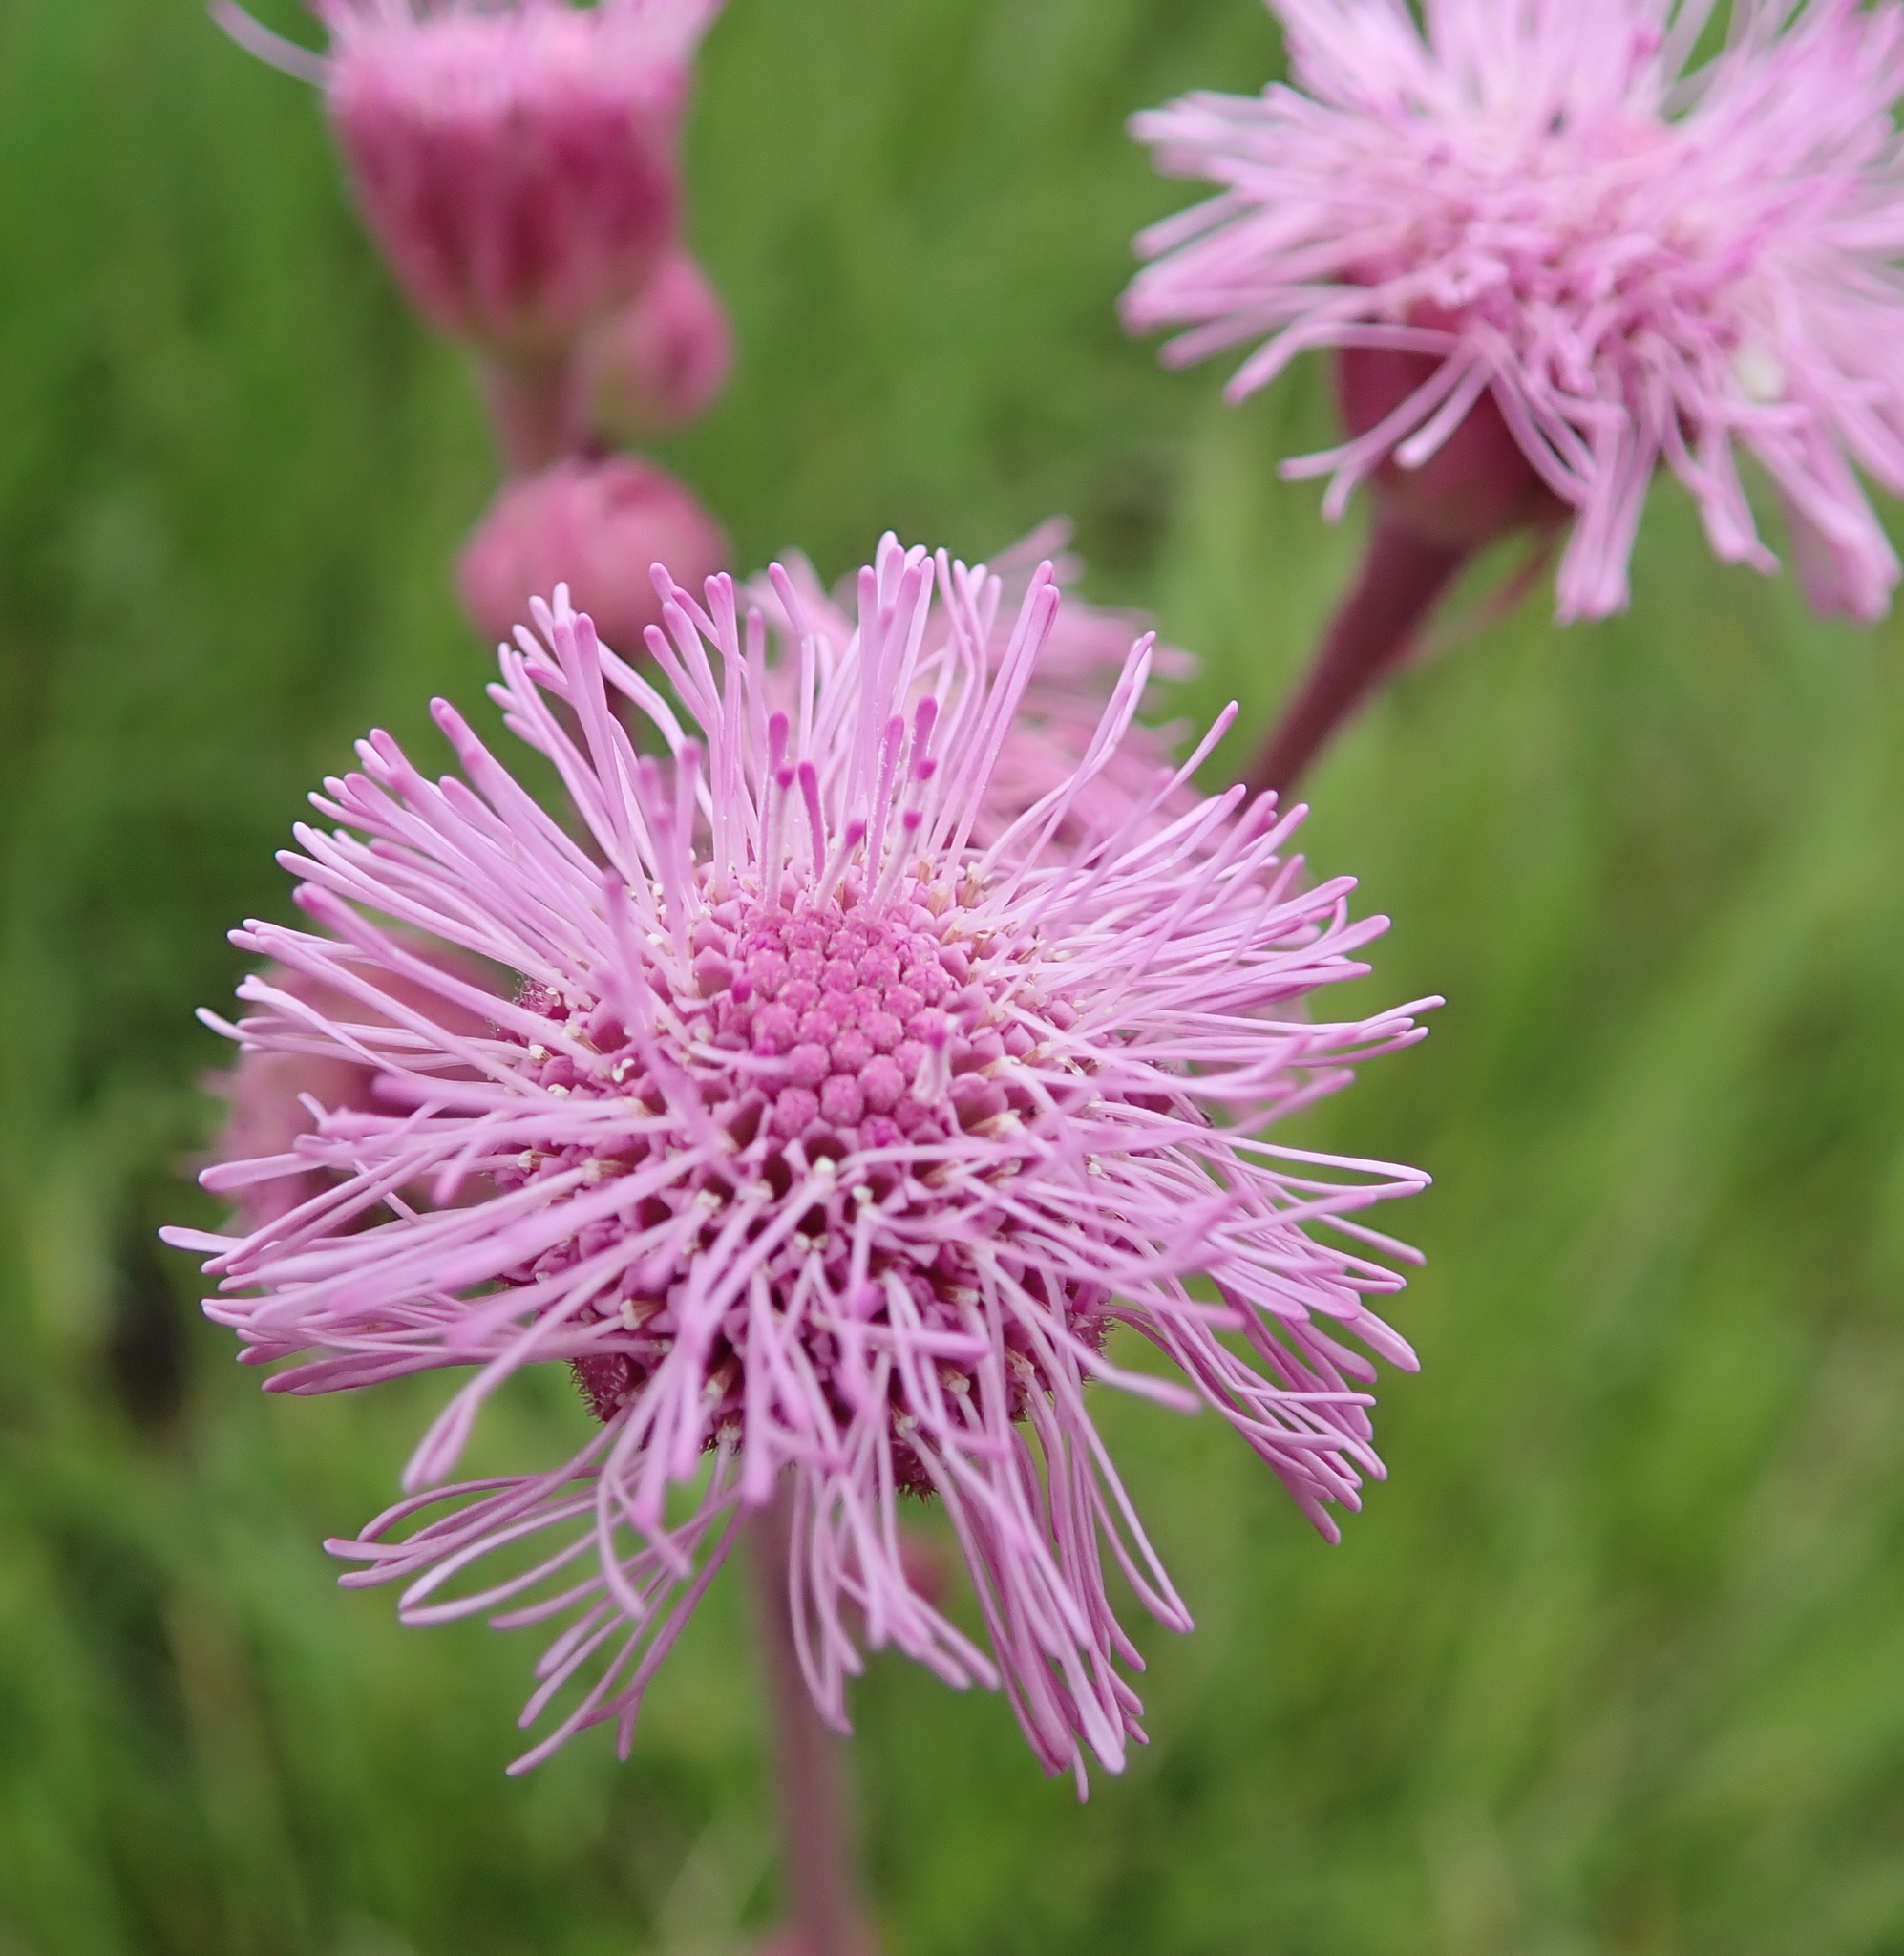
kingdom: Plantae
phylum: Tracheophyta
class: Magnoliopsida
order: Asterales
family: Asteraceae
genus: Campuloclinium
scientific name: Campuloclinium macrocephalum
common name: Pompomweed
